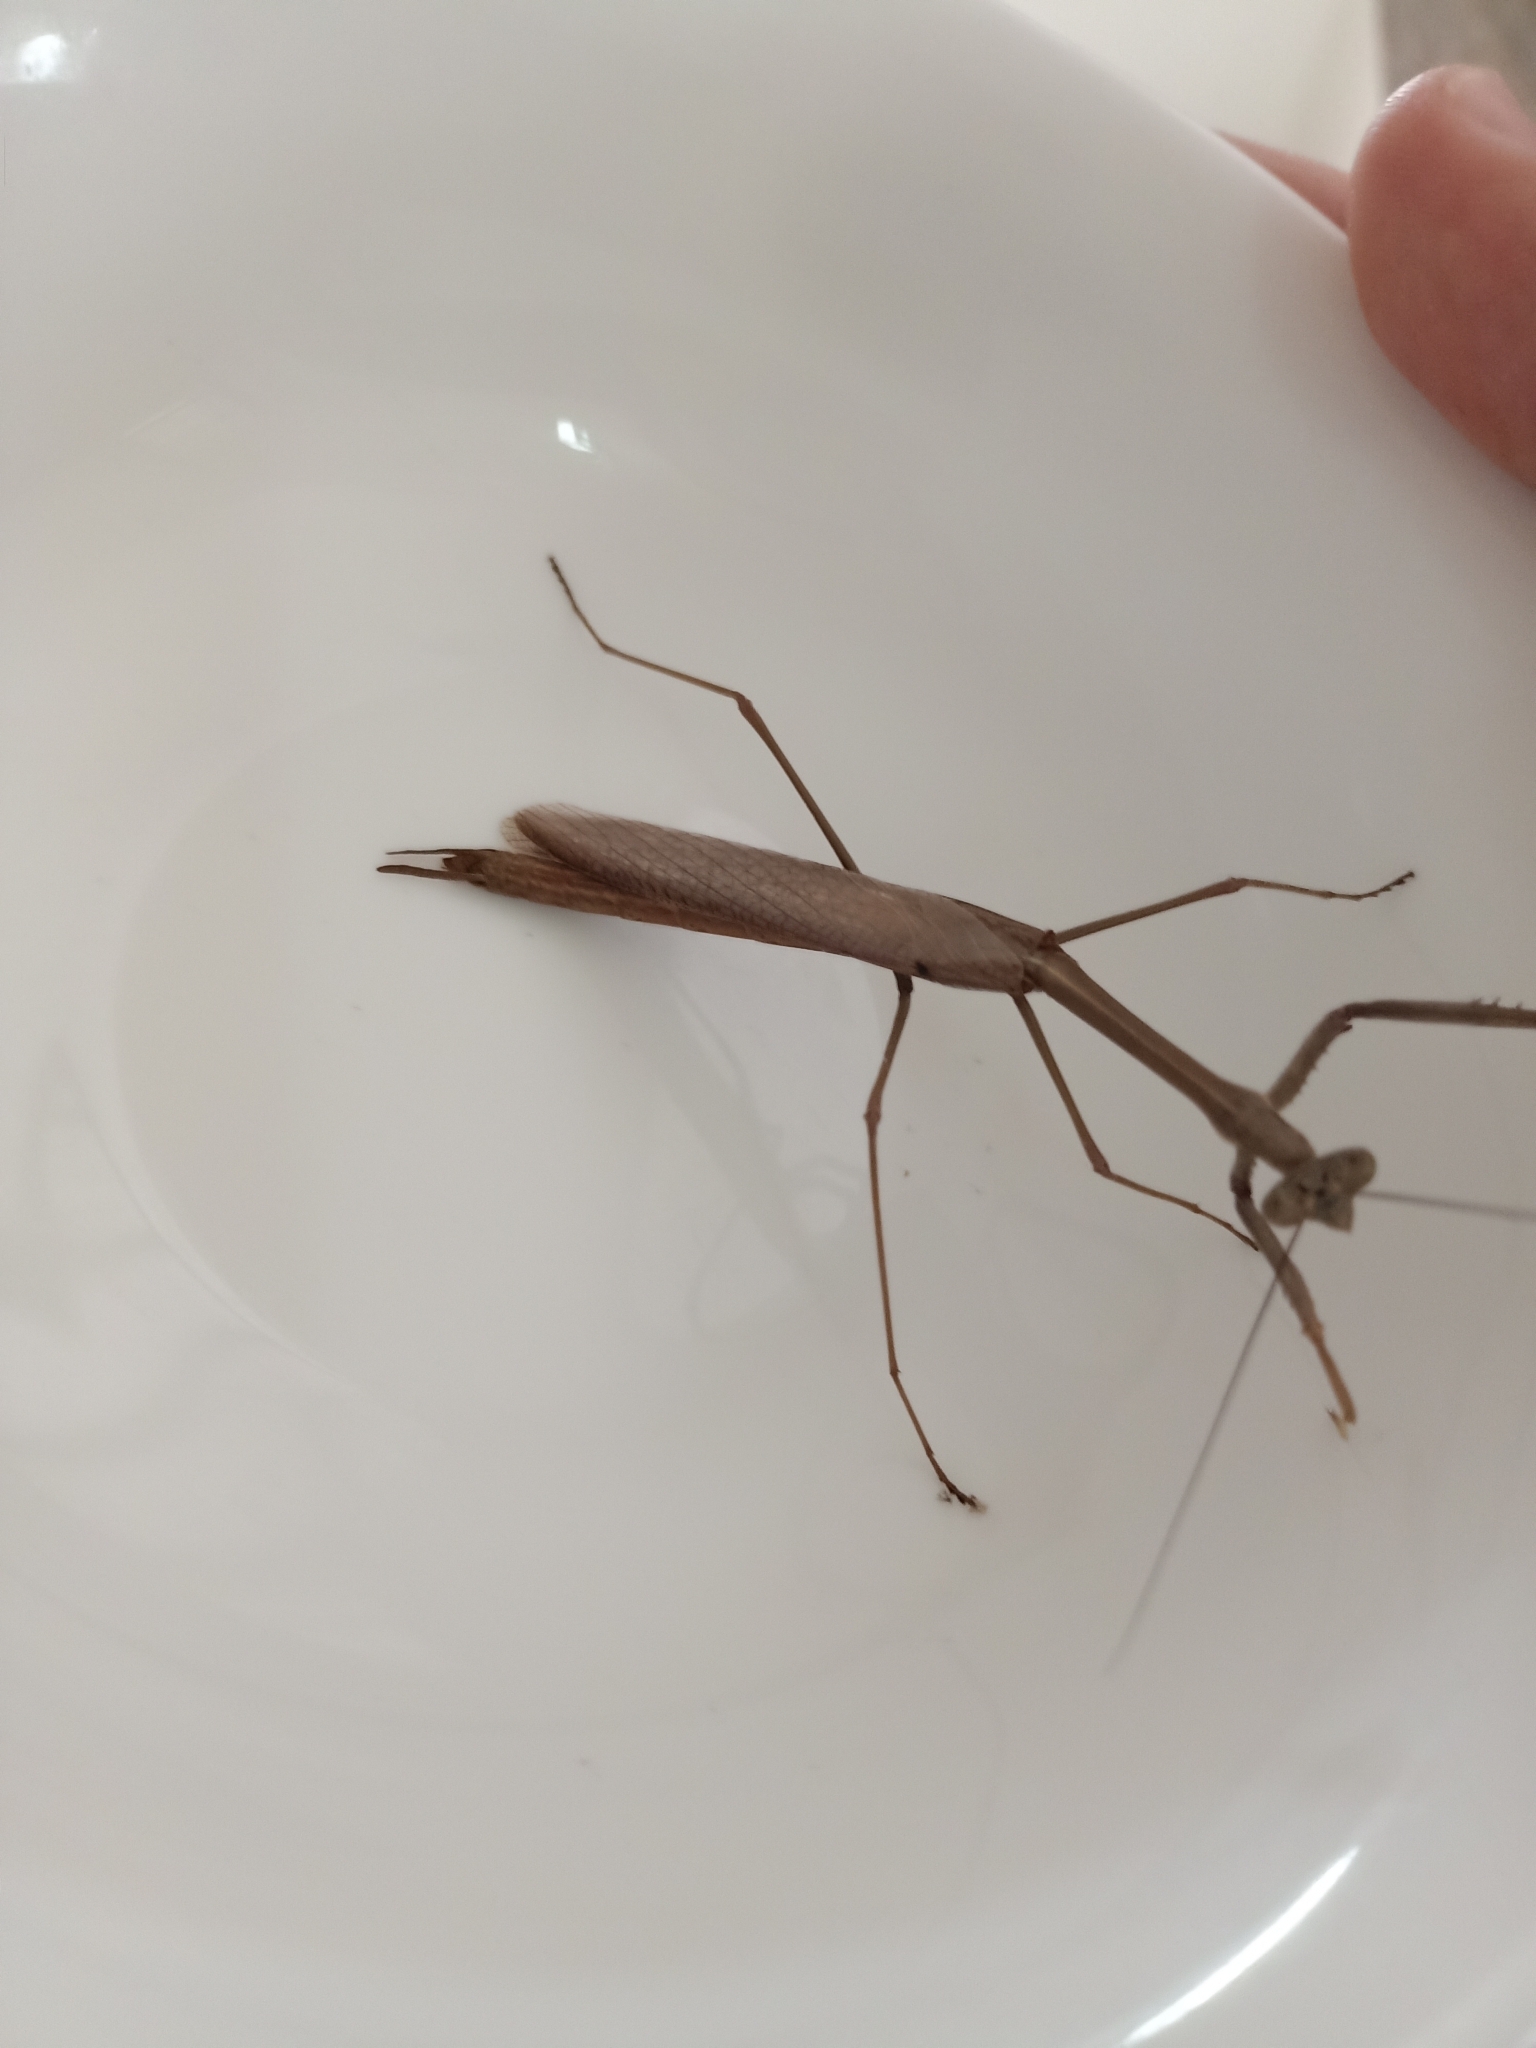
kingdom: Animalia
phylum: Arthropoda
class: Insecta
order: Mantodea
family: Mantidae
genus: Archimantis
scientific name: Archimantis latistyla
